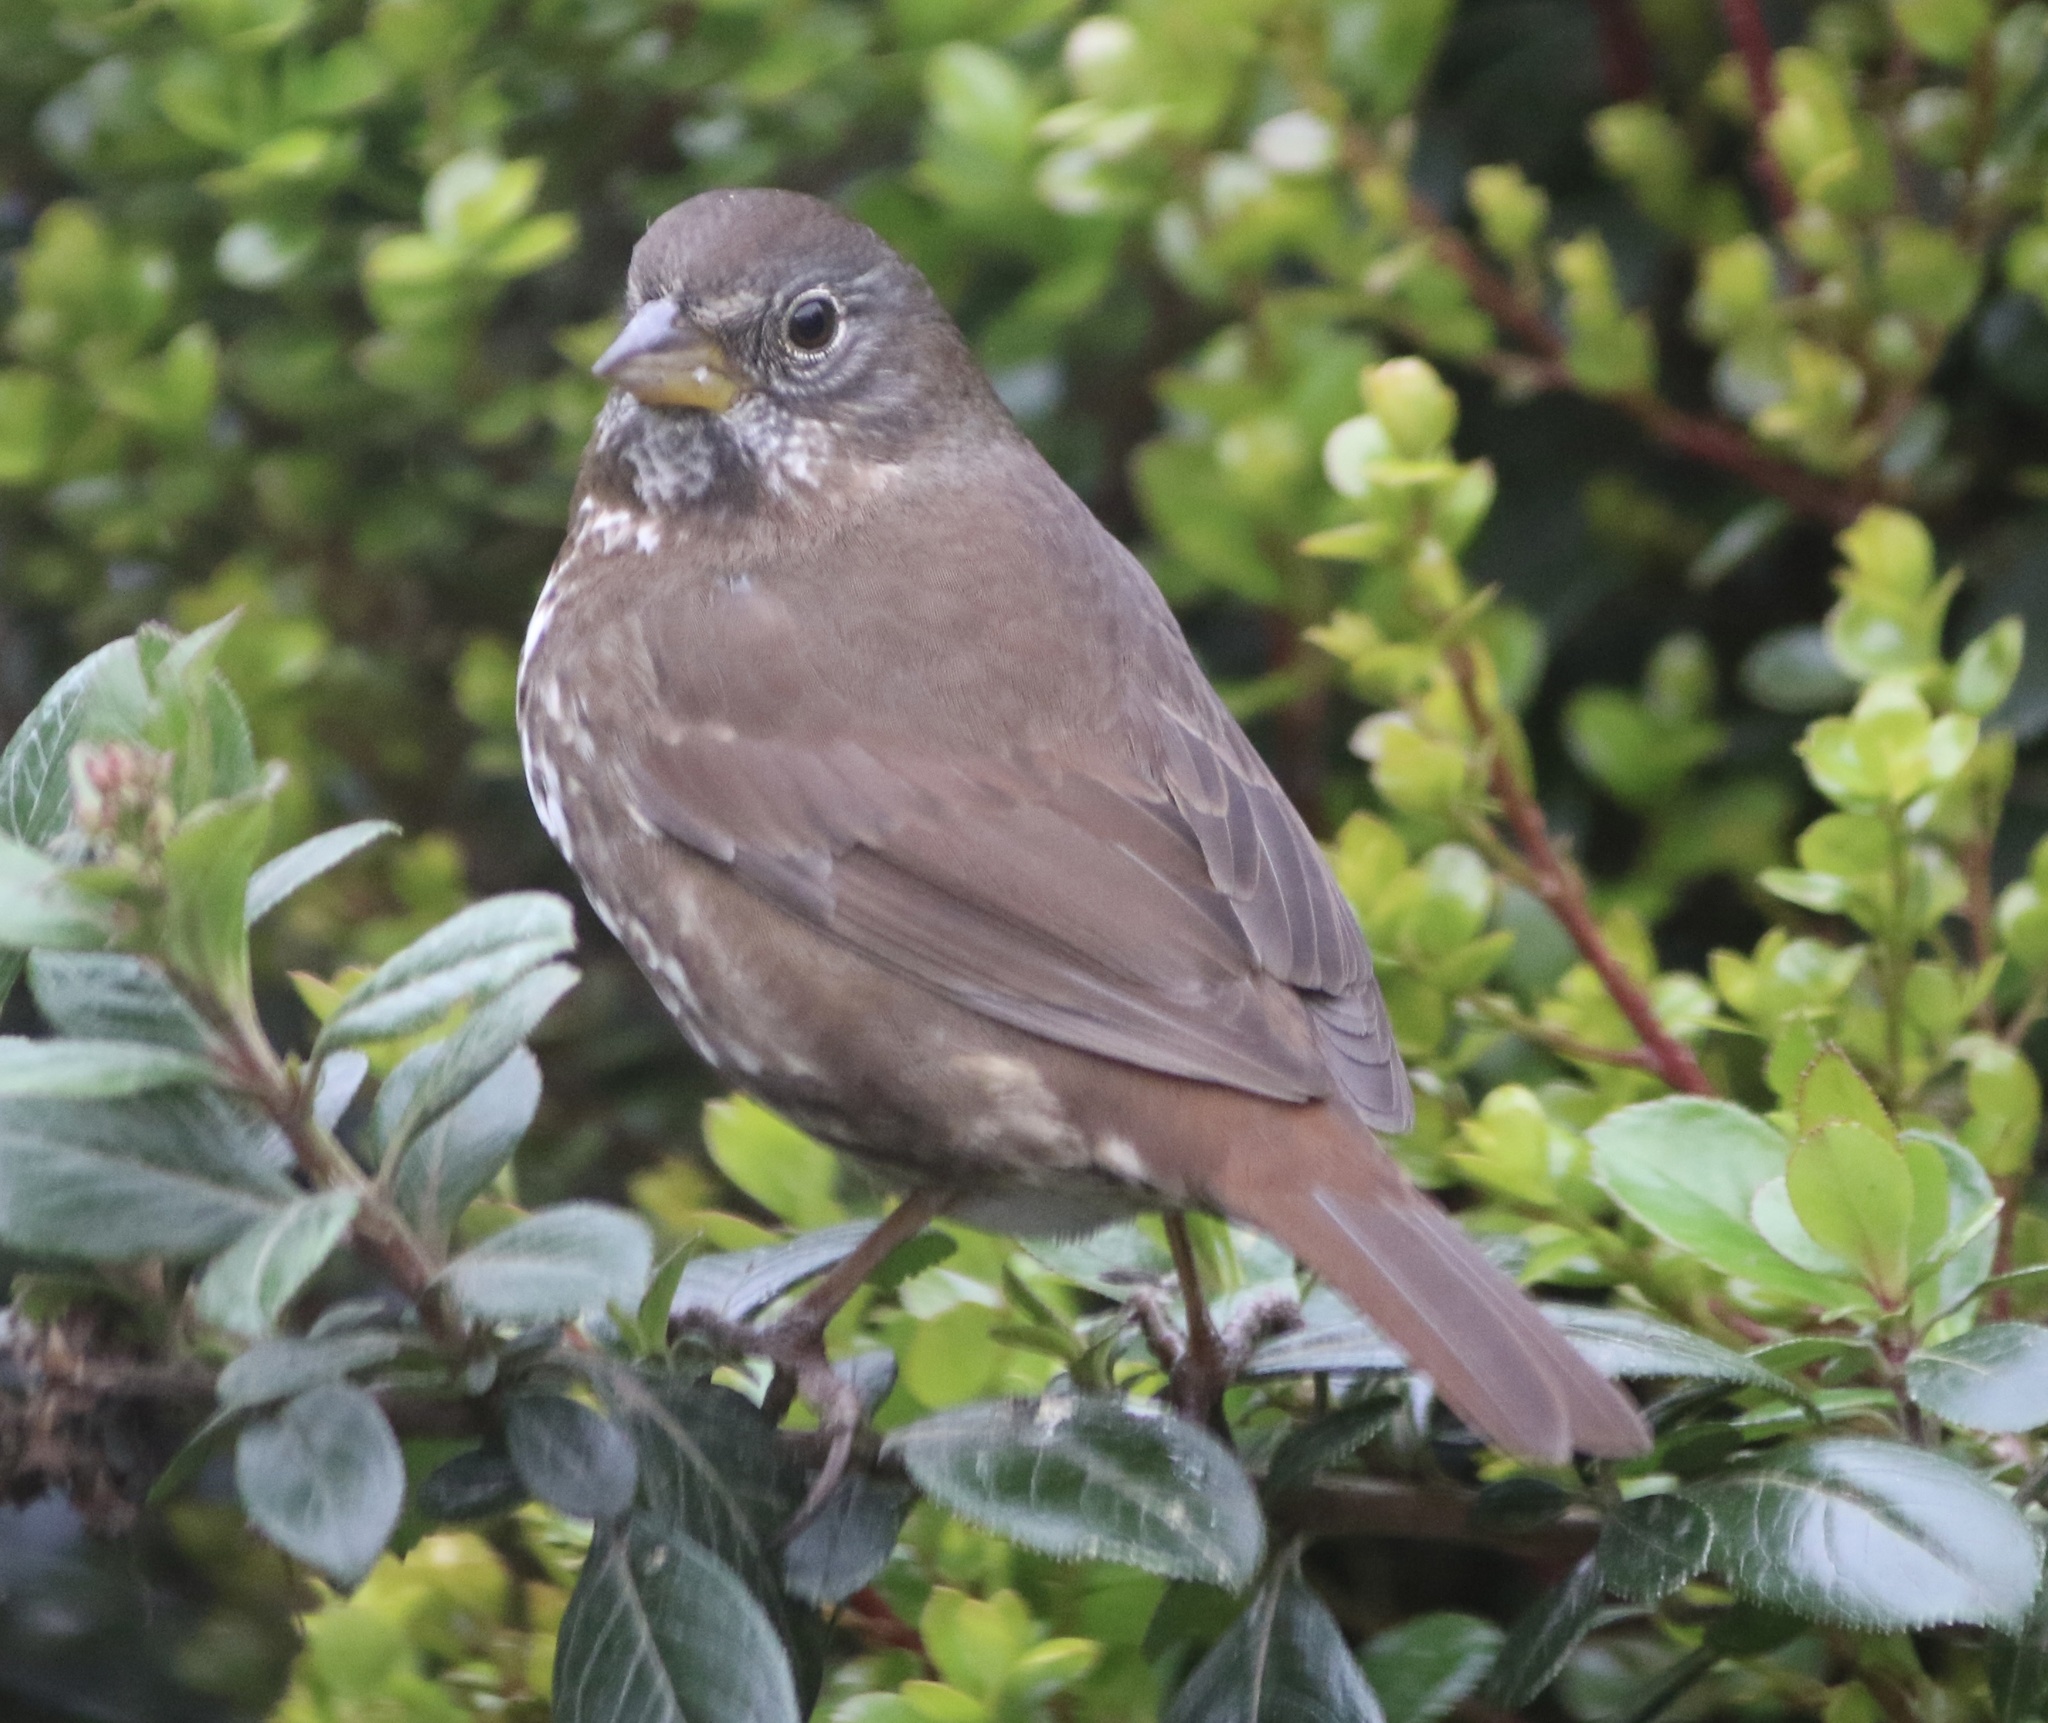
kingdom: Animalia
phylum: Chordata
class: Aves
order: Passeriformes
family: Passerellidae
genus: Passerella
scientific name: Passerella iliaca
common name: Fox sparrow
